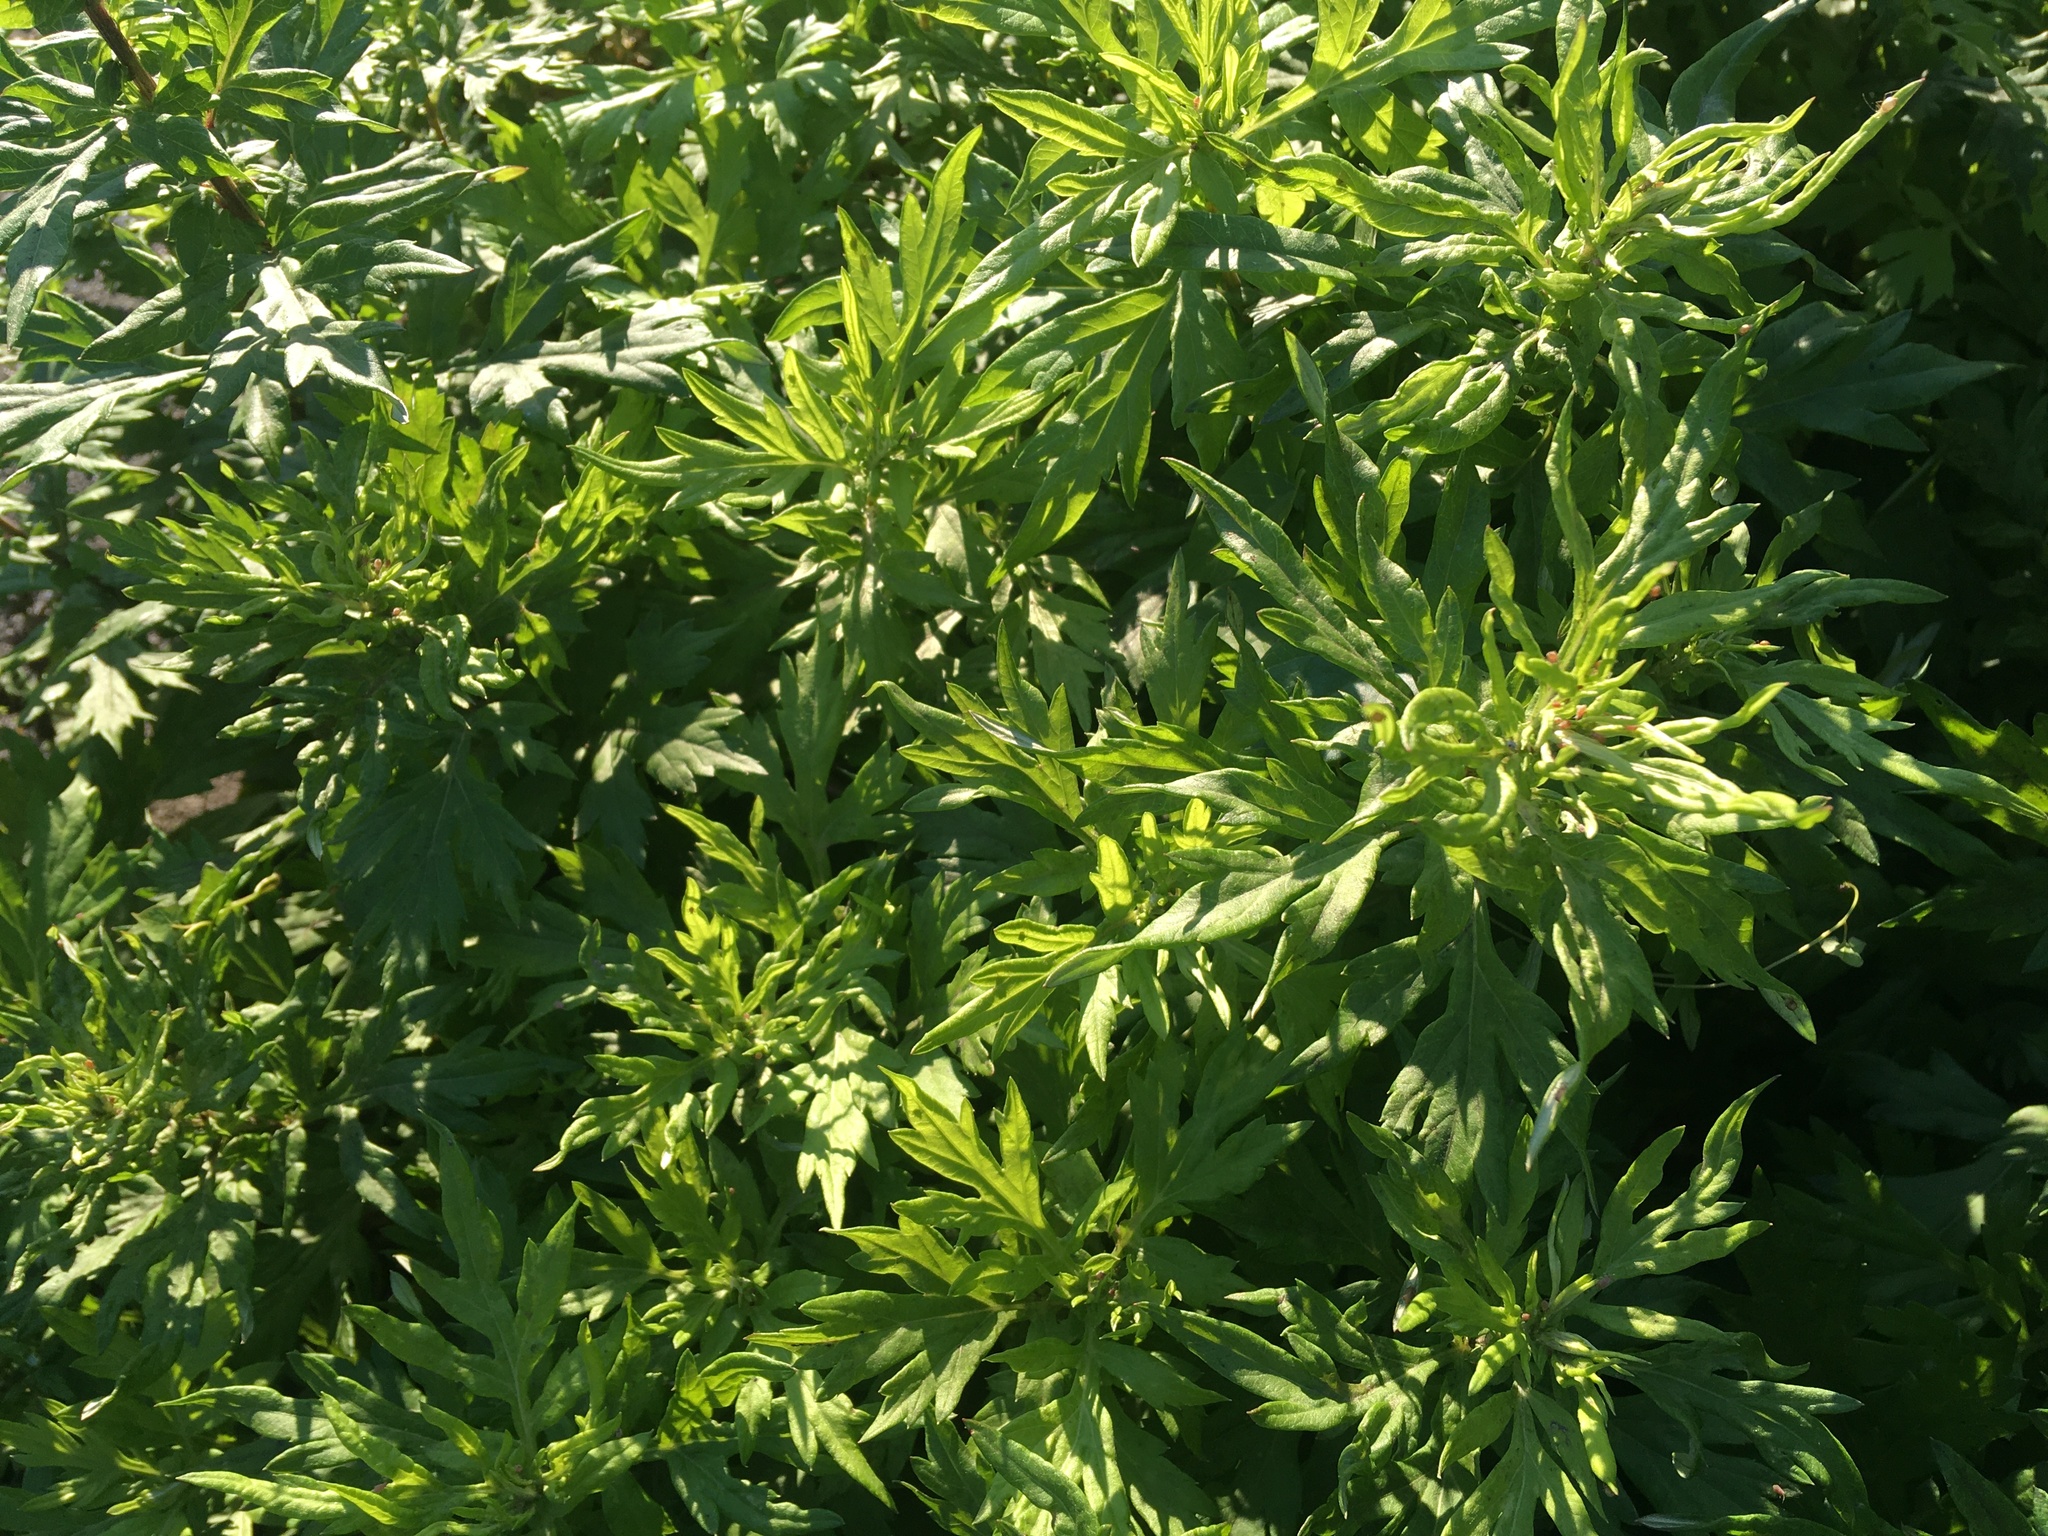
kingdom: Plantae
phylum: Tracheophyta
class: Magnoliopsida
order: Asterales
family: Asteraceae
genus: Artemisia
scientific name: Artemisia vulgaris
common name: Mugwort
